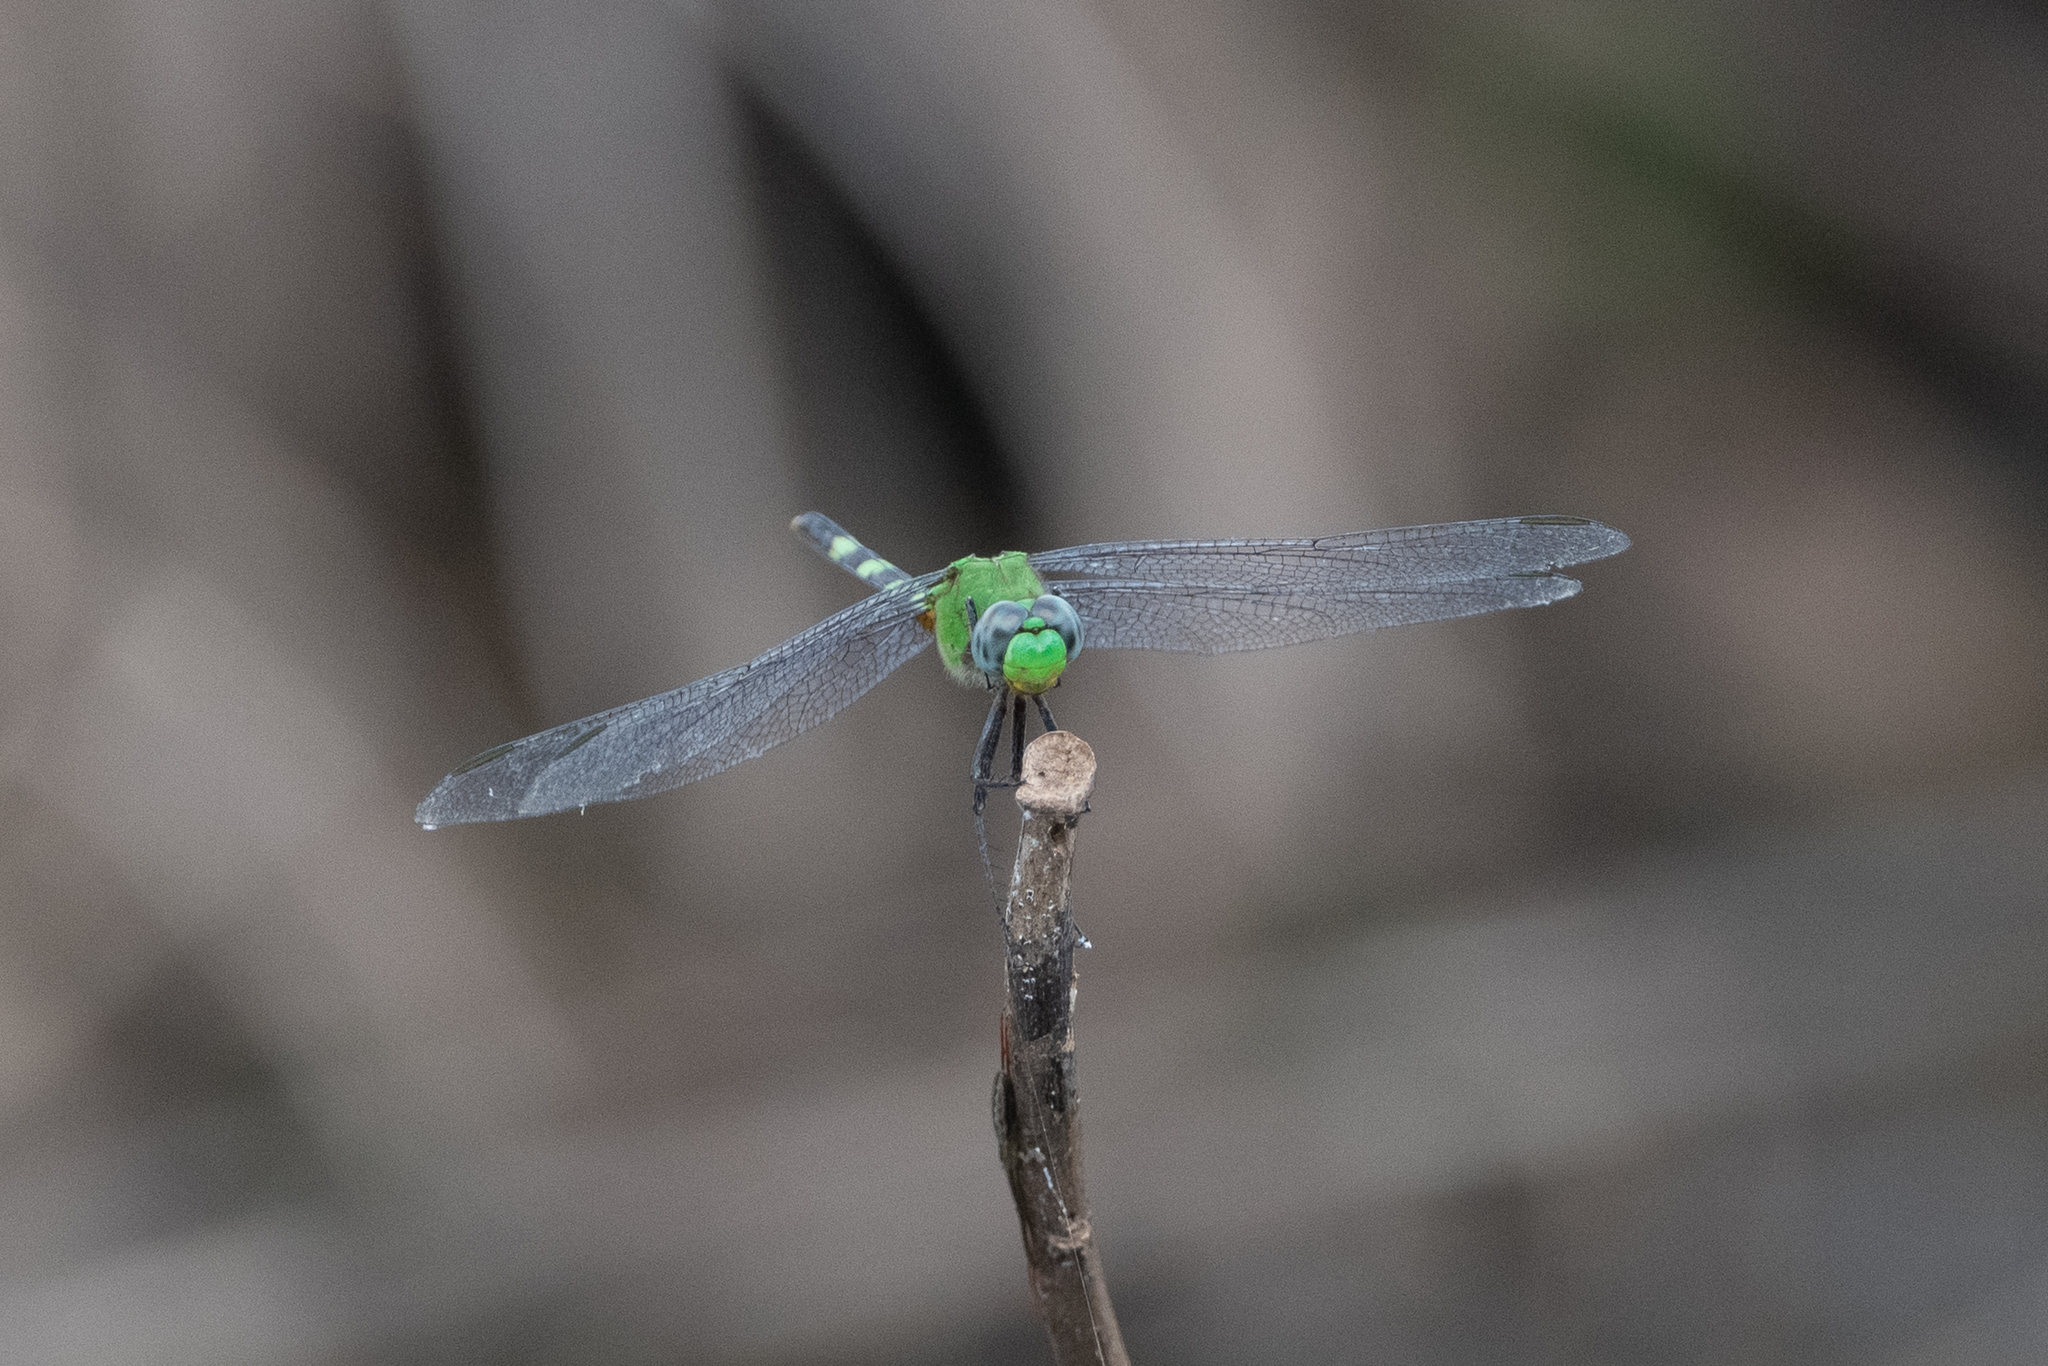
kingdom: Animalia
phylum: Arthropoda
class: Insecta
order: Odonata
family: Libellulidae
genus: Erythemis
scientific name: Erythemis vesiculosa
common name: Great pondhawk
